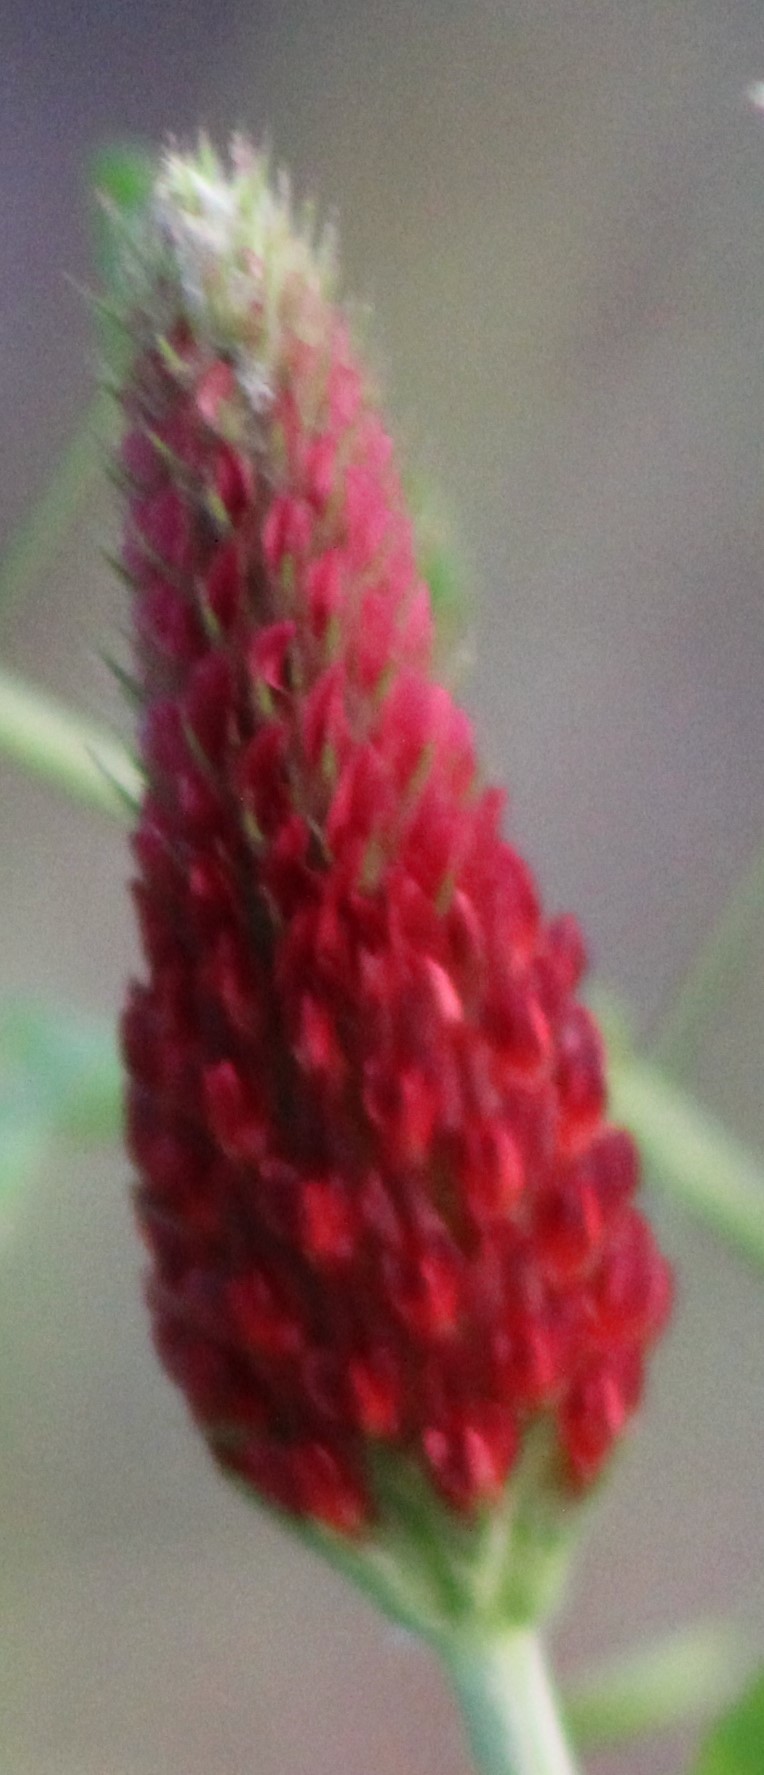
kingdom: Plantae
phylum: Tracheophyta
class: Magnoliopsida
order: Fabales
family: Fabaceae
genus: Trifolium
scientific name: Trifolium incarnatum
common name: Crimson clover
